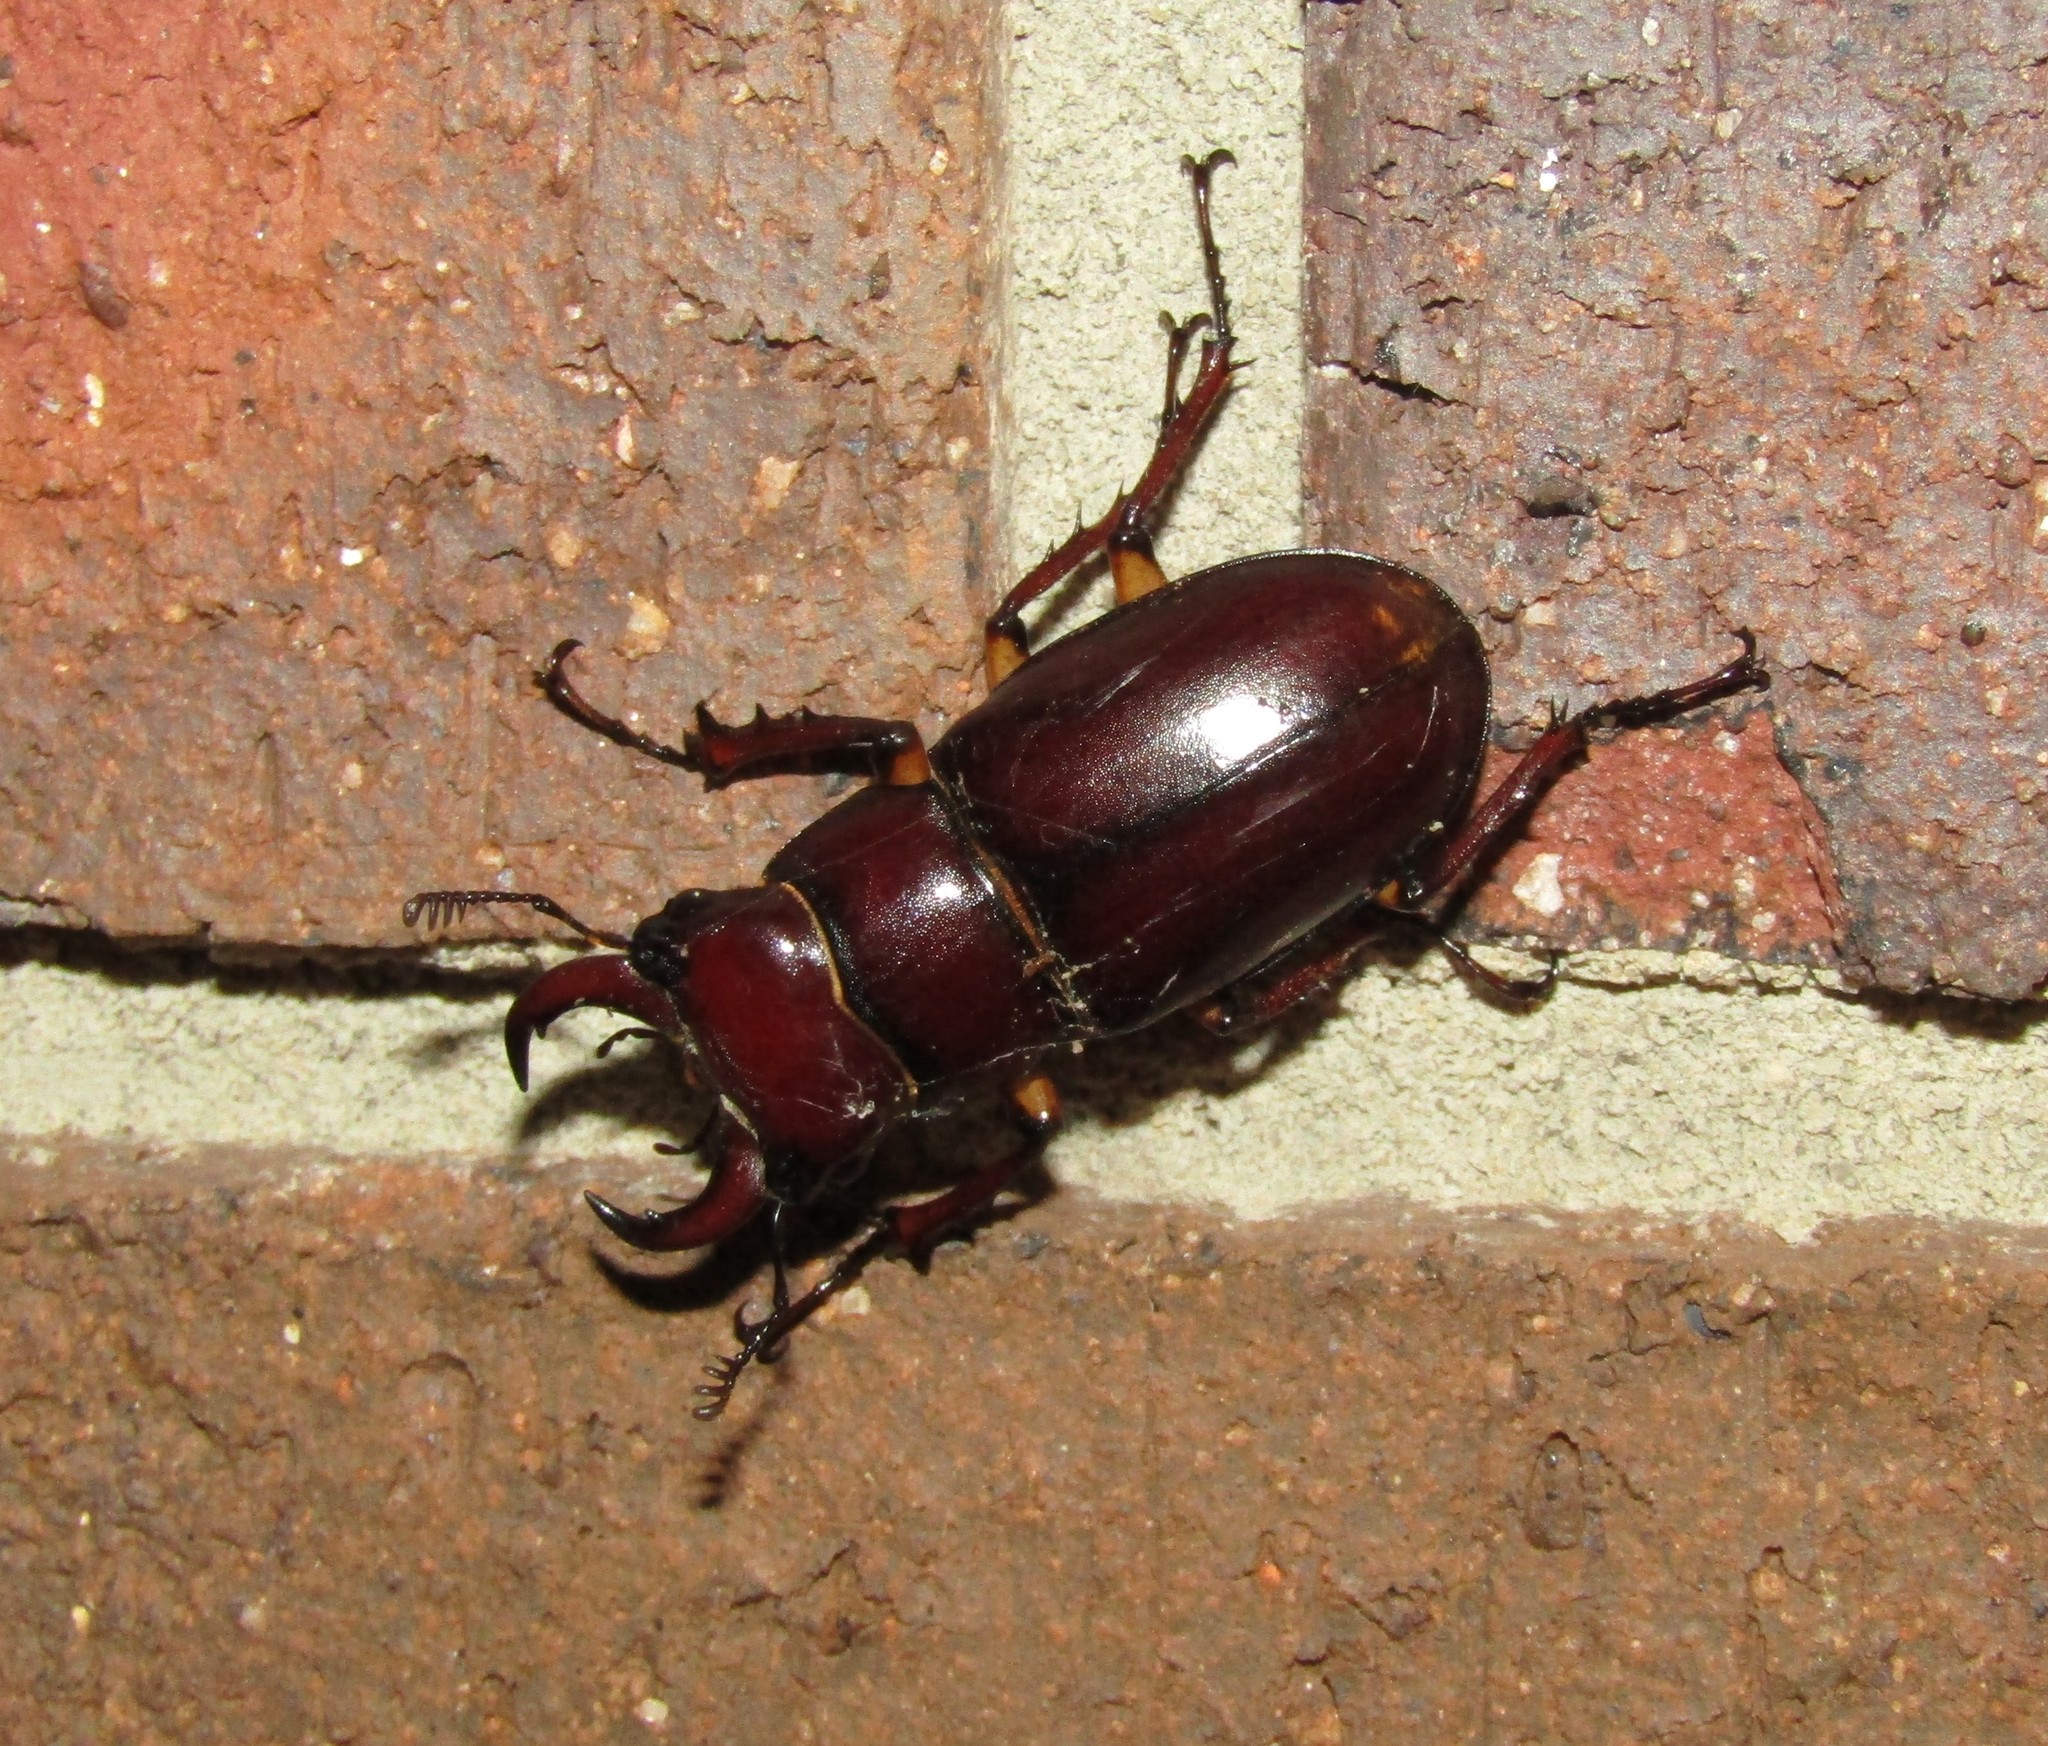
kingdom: Animalia
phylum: Arthropoda
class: Insecta
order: Coleoptera
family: Lucanidae
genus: Lucanus
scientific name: Lucanus capreolus
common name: Stag beetle
